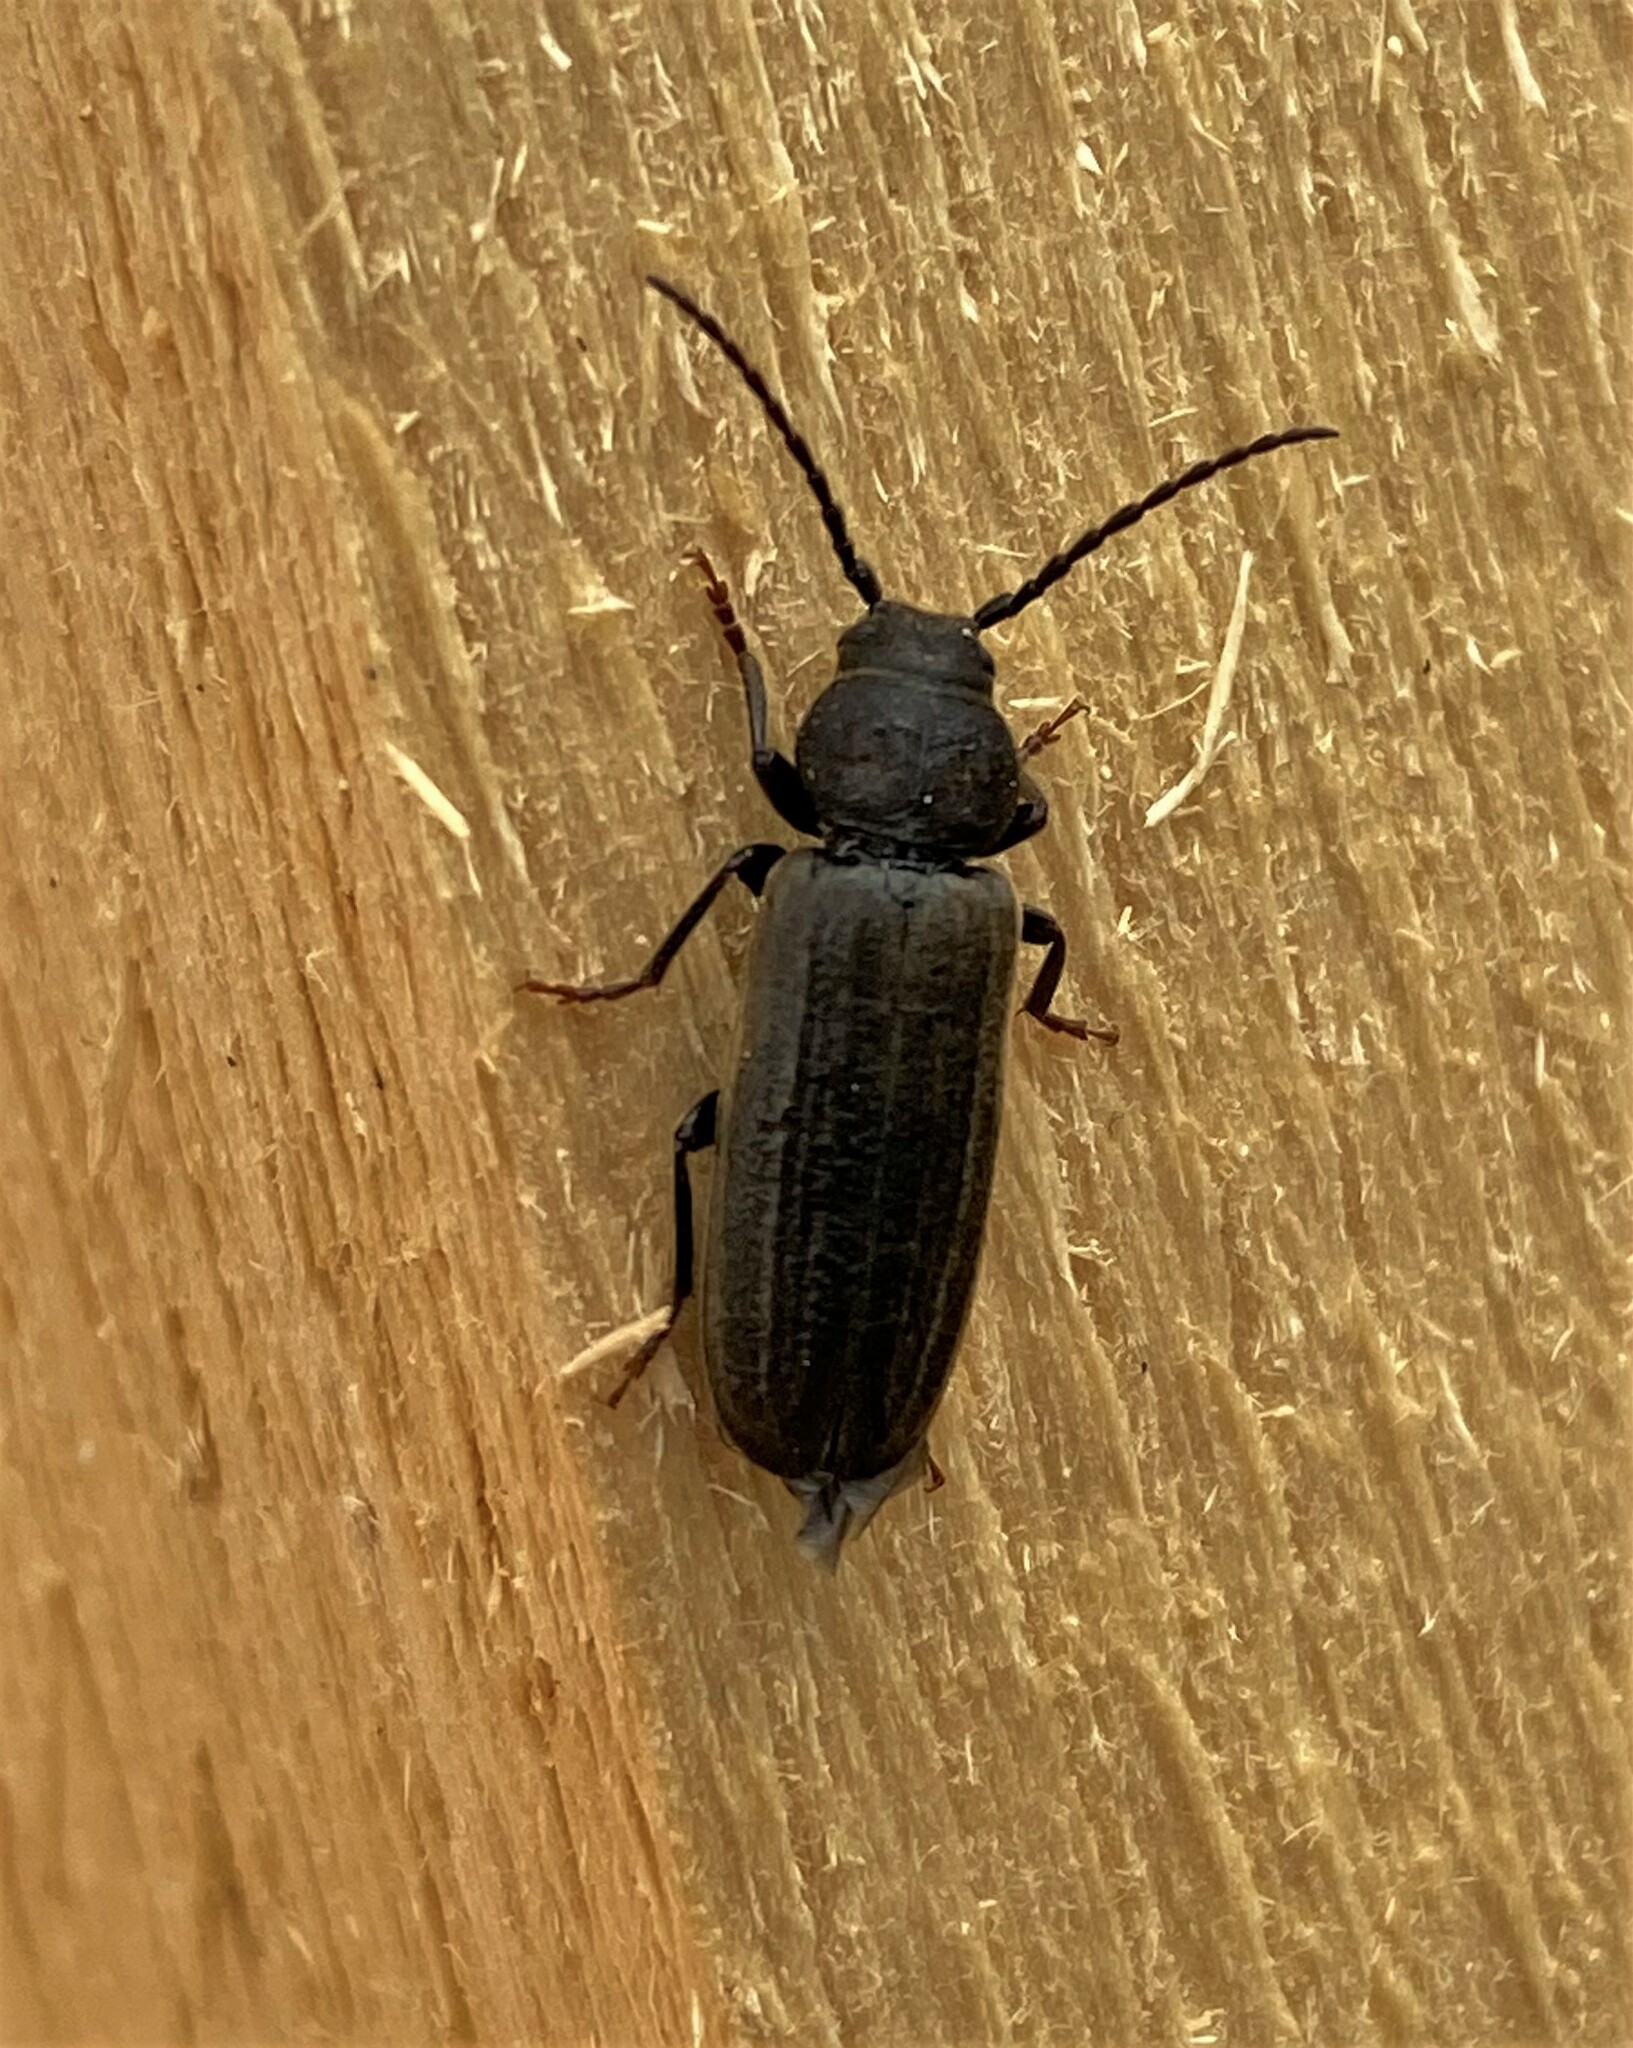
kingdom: Animalia
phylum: Arthropoda
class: Insecta
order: Coleoptera
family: Cerambycidae
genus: Asemum
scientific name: Asemum striatum
